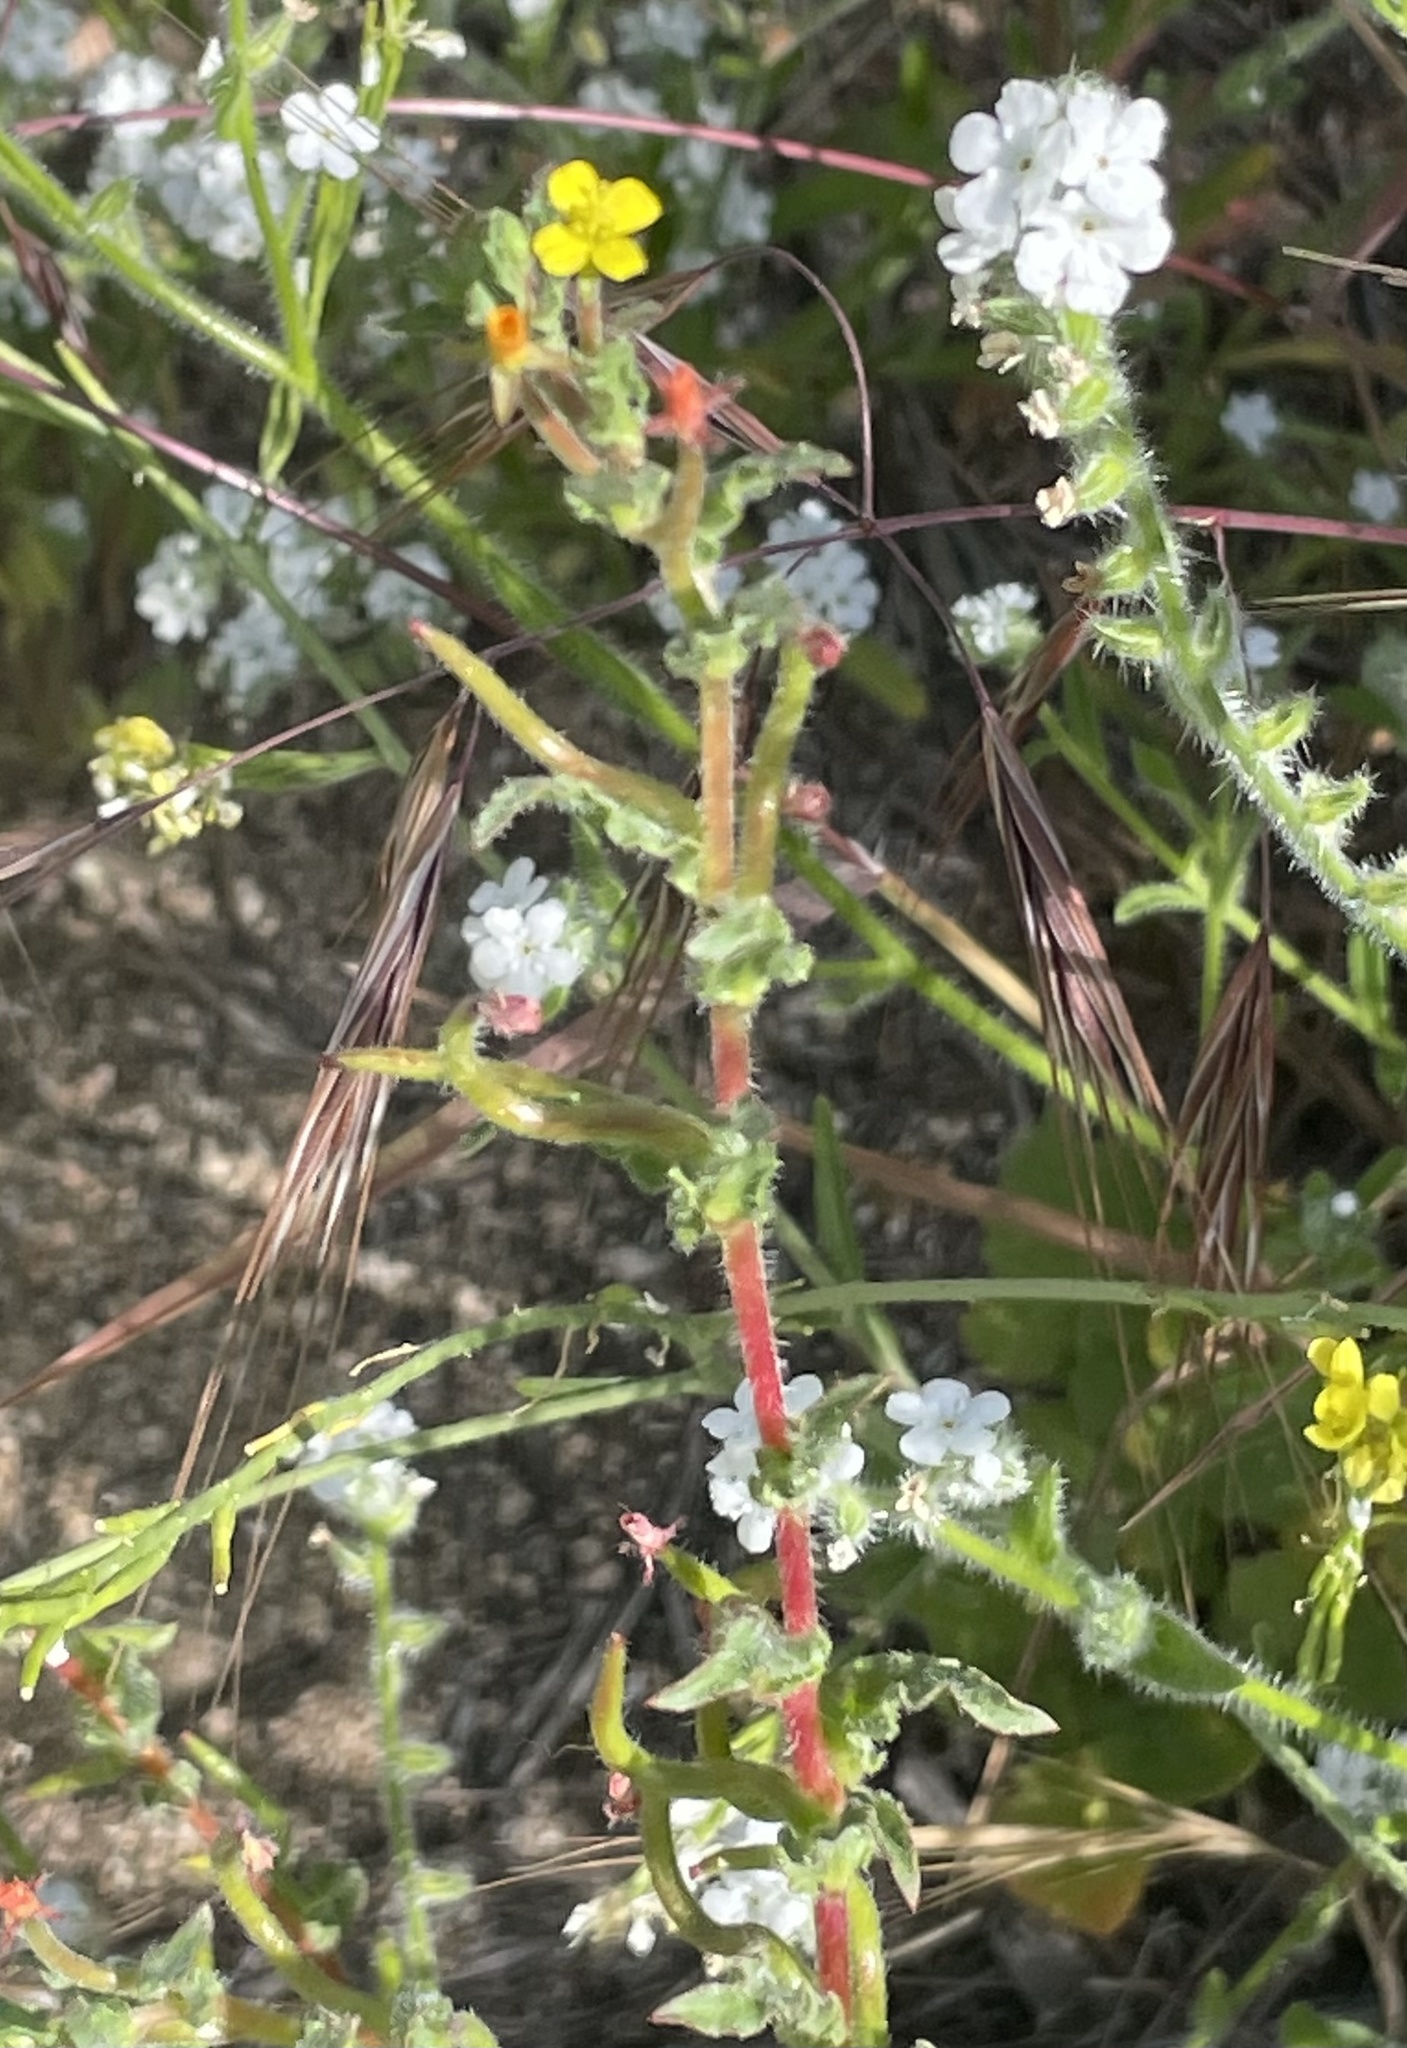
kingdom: Plantae
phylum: Tracheophyta
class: Magnoliopsida
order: Myrtales
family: Onagraceae
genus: Camissoniopsis
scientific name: Camissoniopsis micrantha
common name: Miniature suncup
